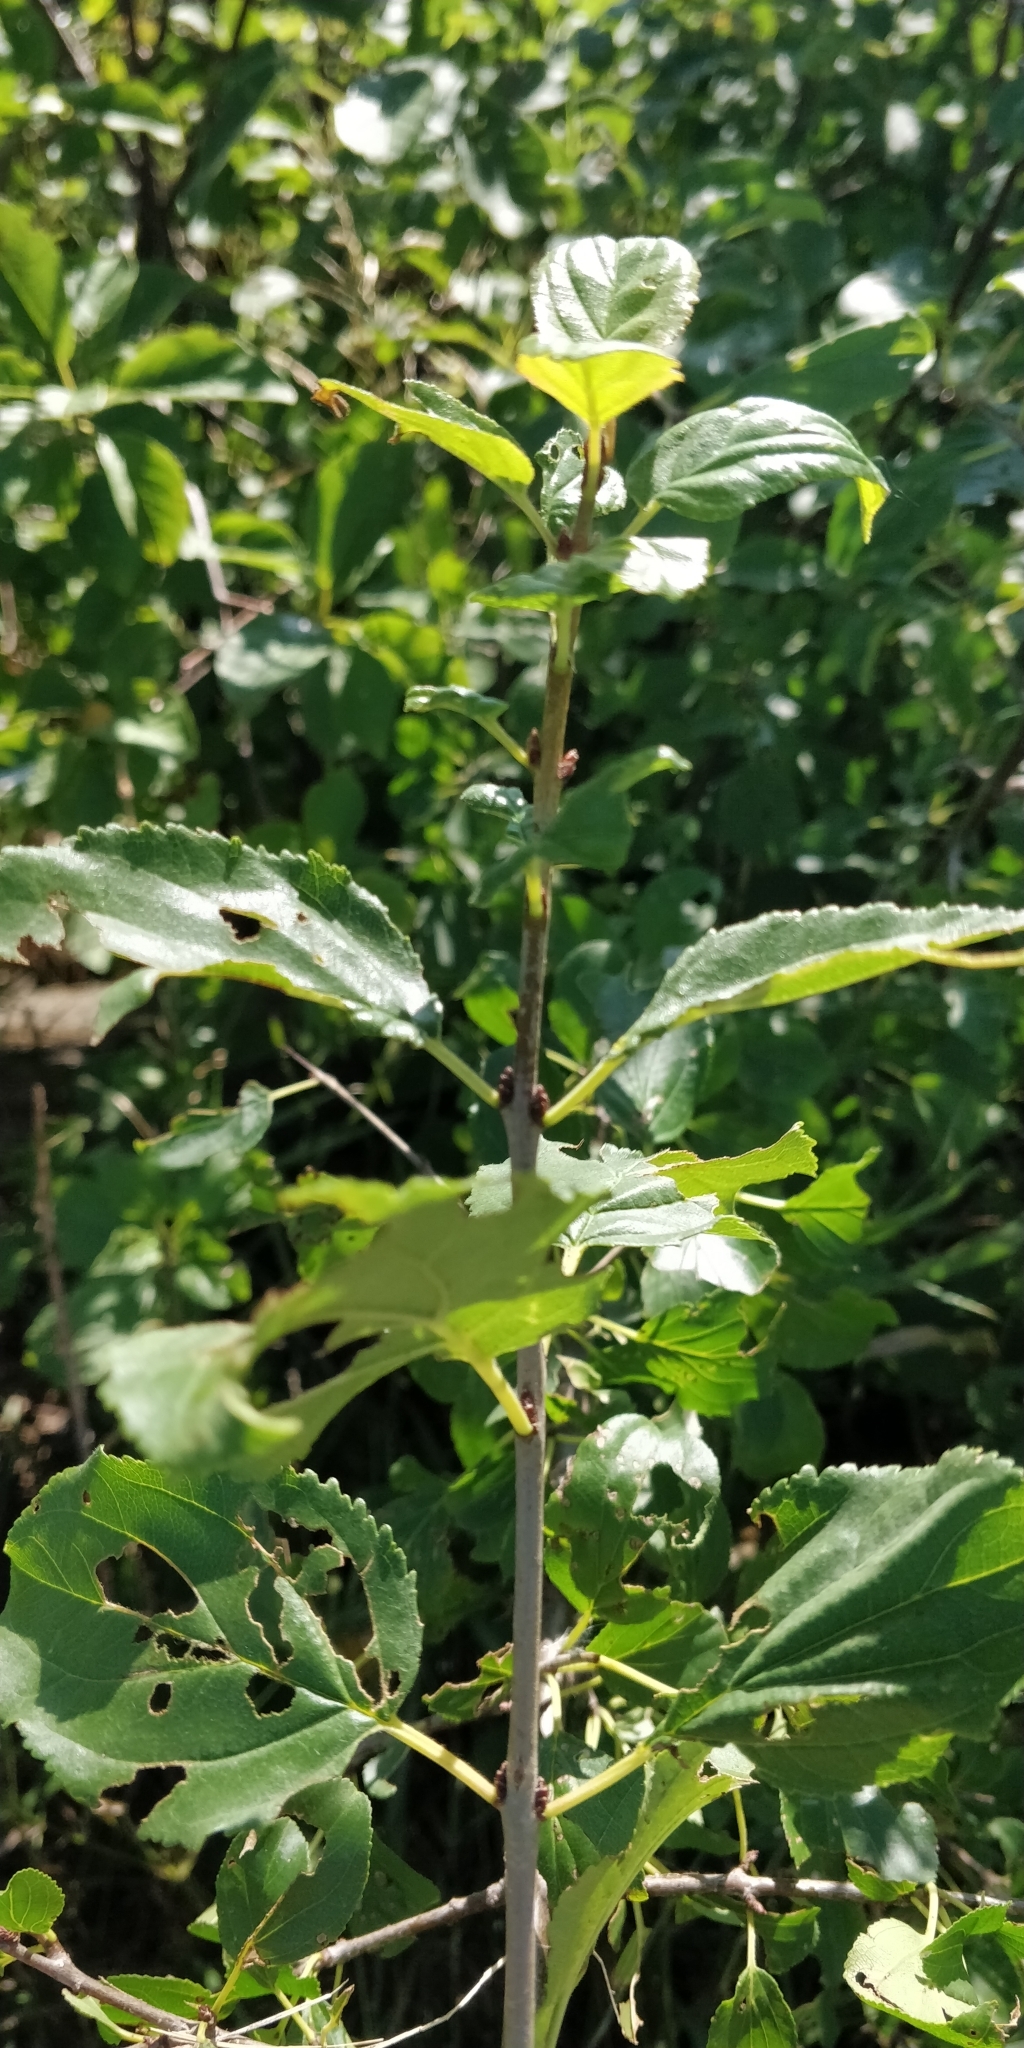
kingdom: Plantae
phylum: Tracheophyta
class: Magnoliopsida
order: Rosales
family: Rhamnaceae
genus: Rhamnus
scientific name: Rhamnus cathartica
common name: Common buckthorn
